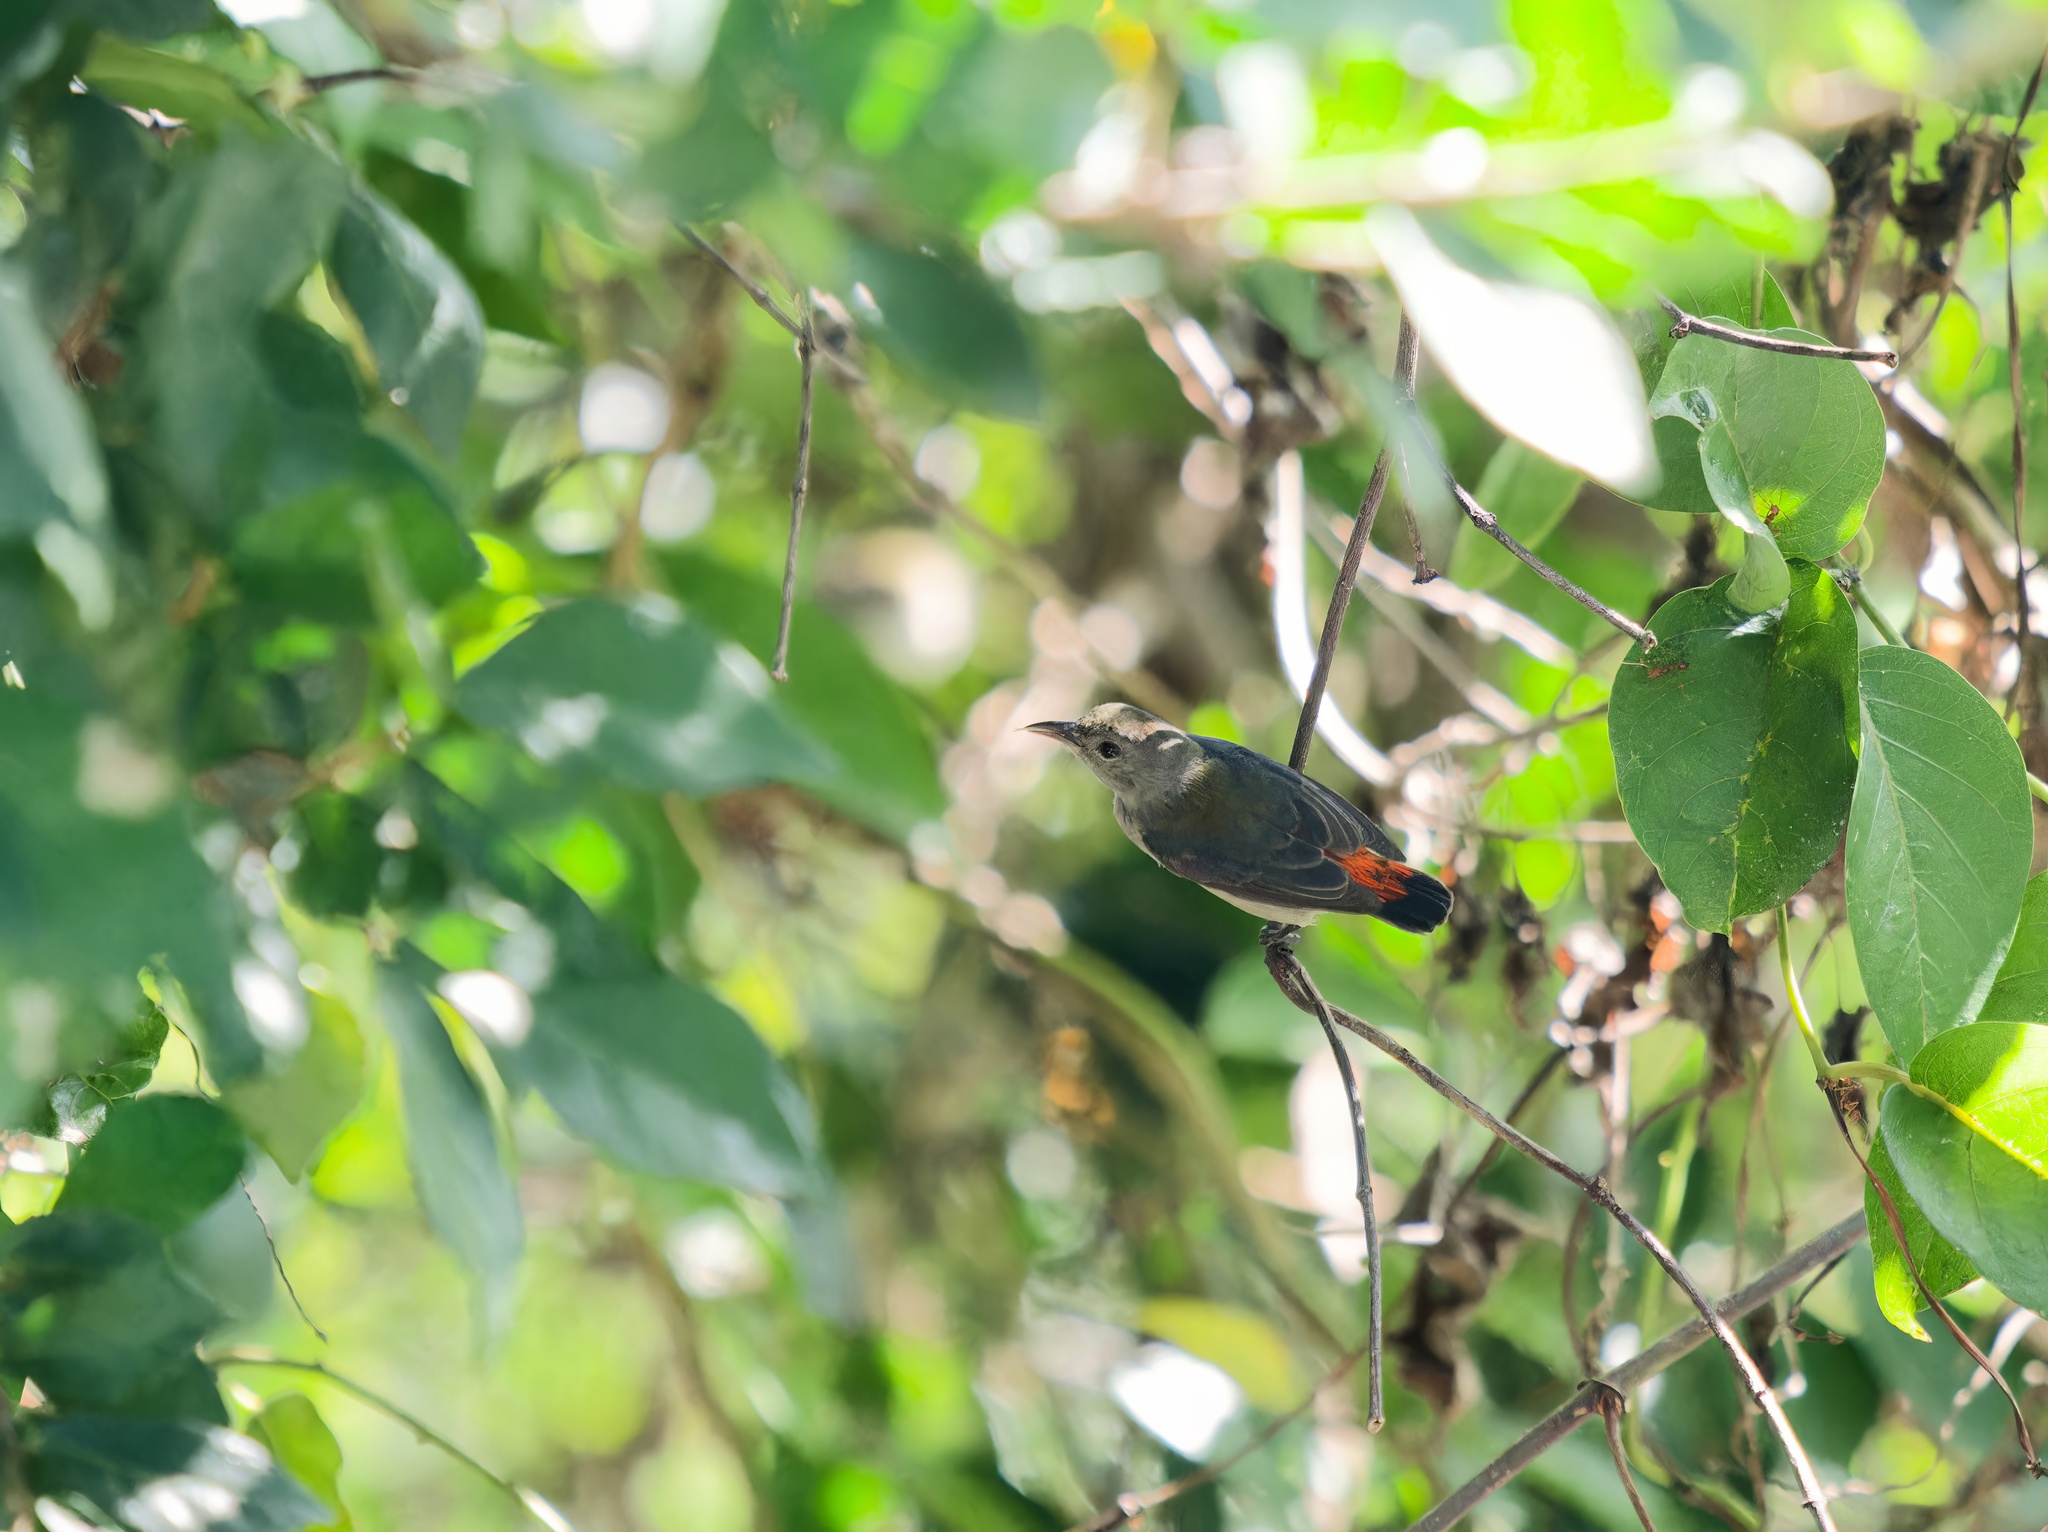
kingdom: Animalia
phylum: Chordata
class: Aves
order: Passeriformes
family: Dicaeidae
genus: Dicaeum
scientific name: Dicaeum cruentatum
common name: Scarlet-backed flowerpecker
